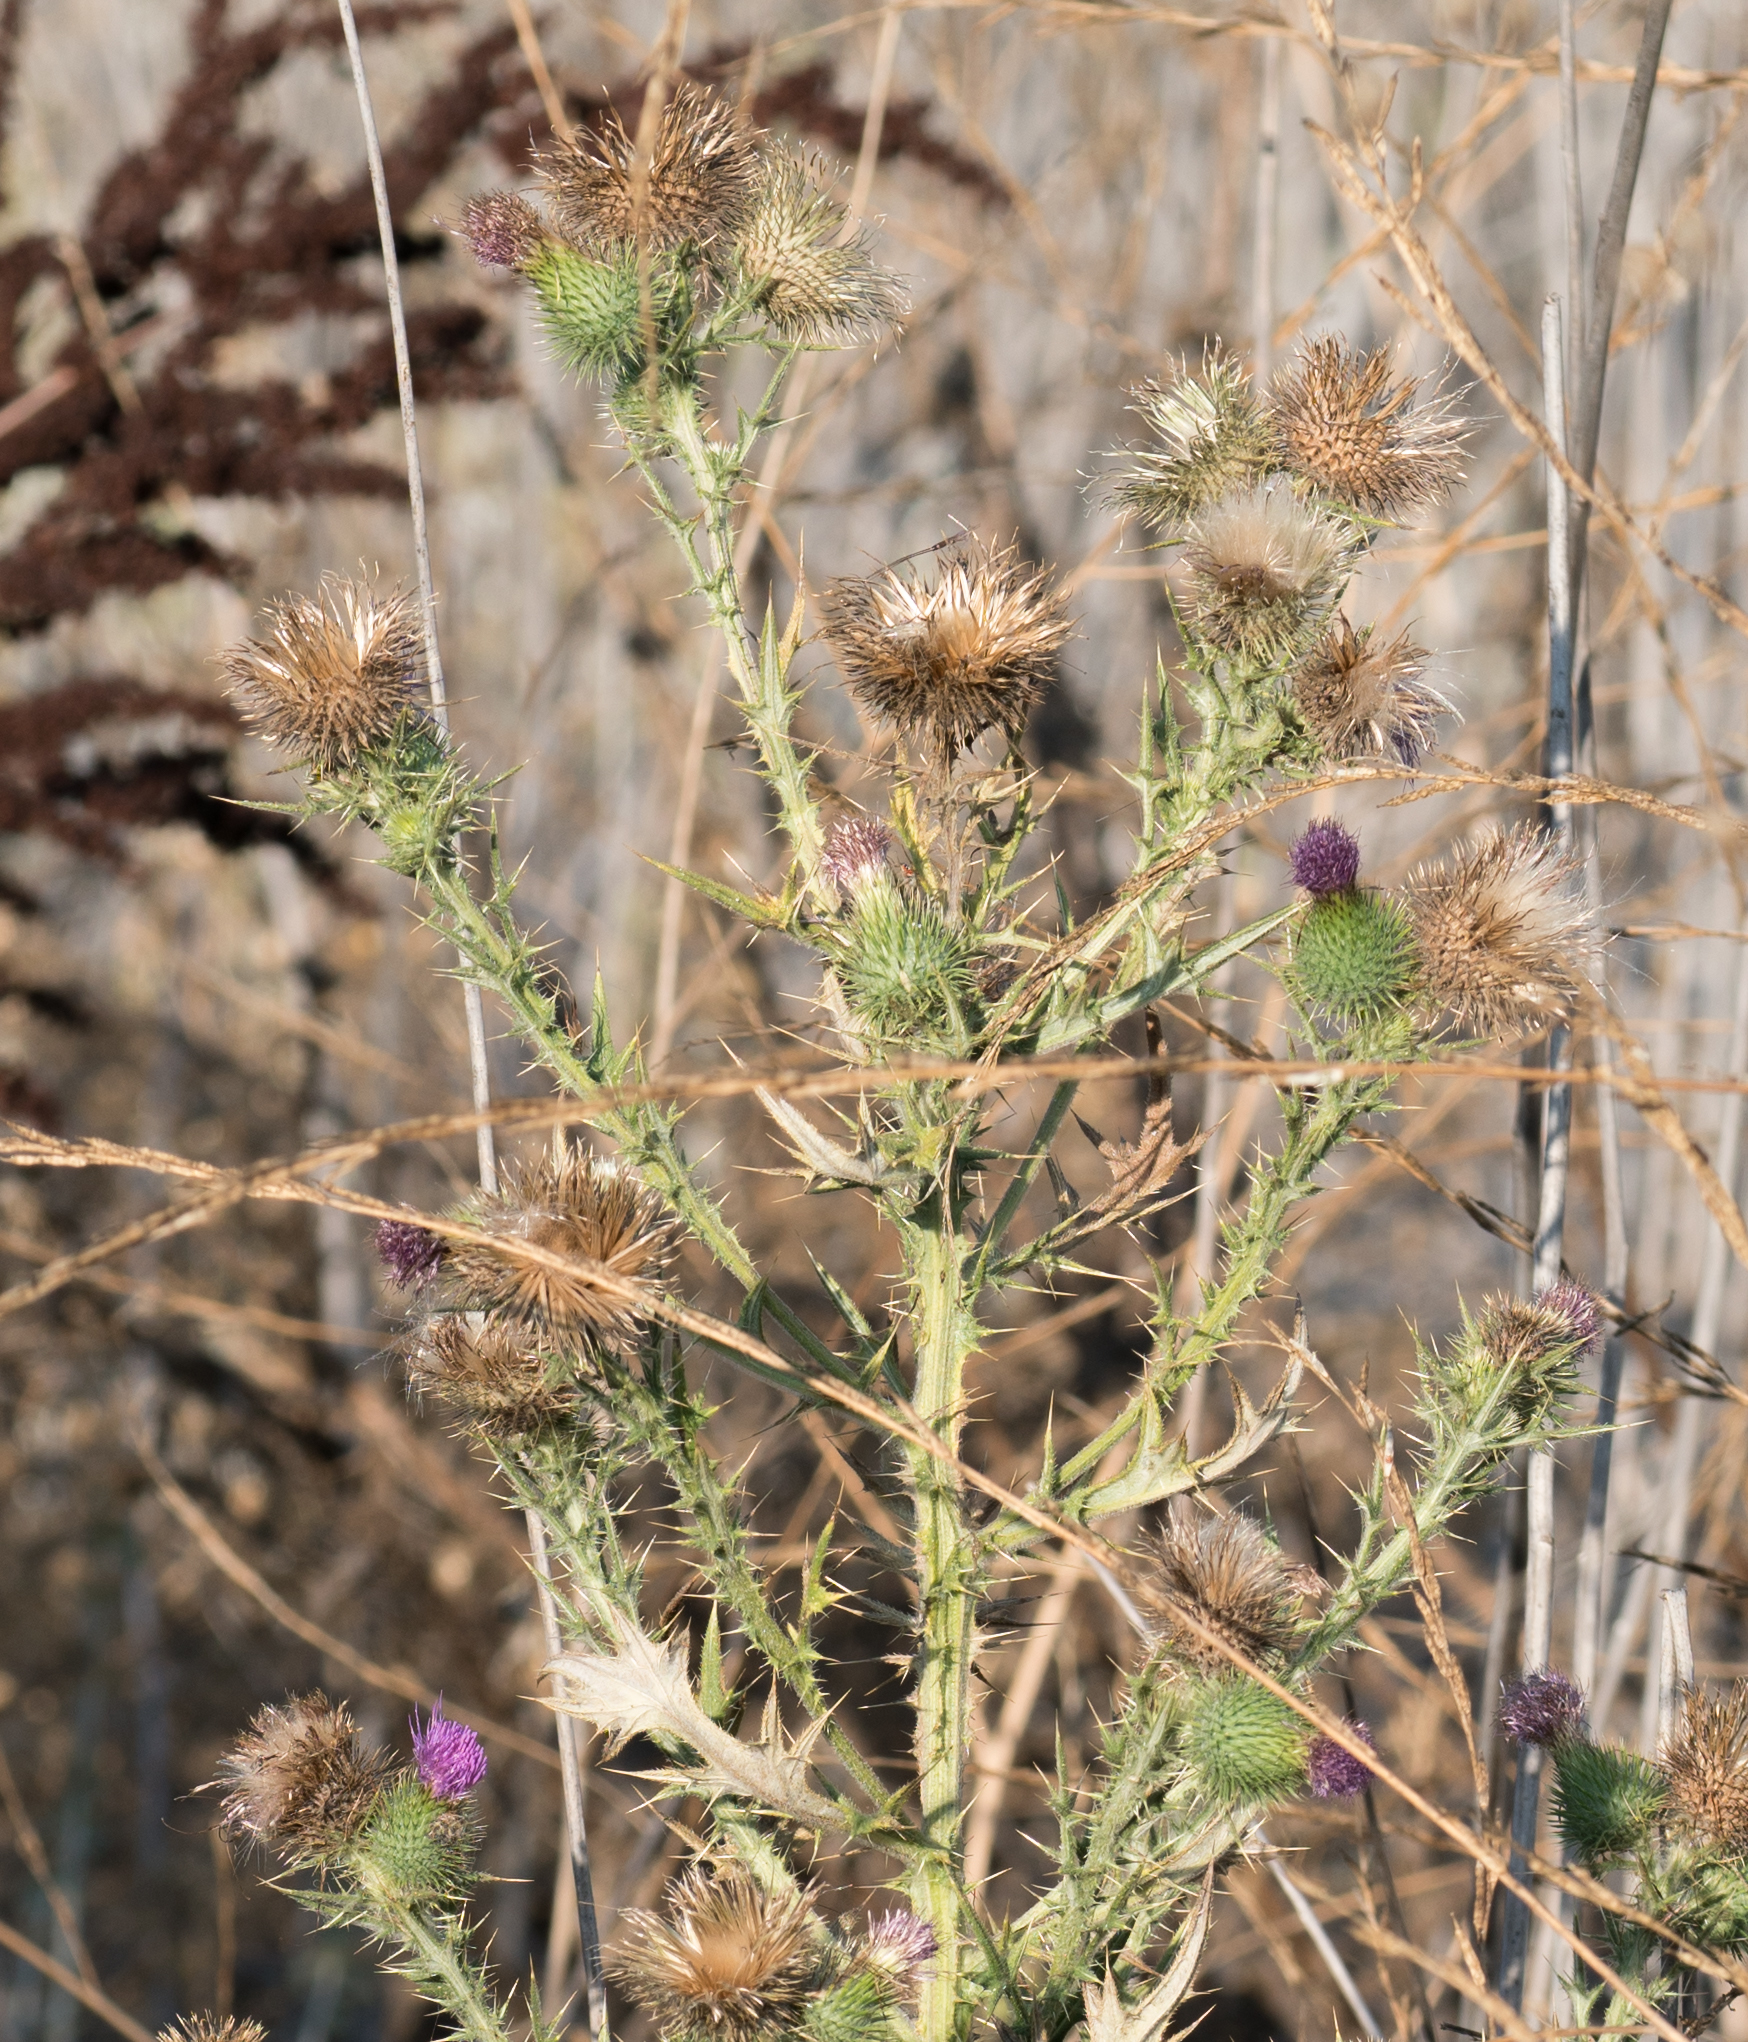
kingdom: Plantae
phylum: Tracheophyta
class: Magnoliopsida
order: Asterales
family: Asteraceae
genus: Cirsium
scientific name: Cirsium vulgare
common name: Bull thistle
